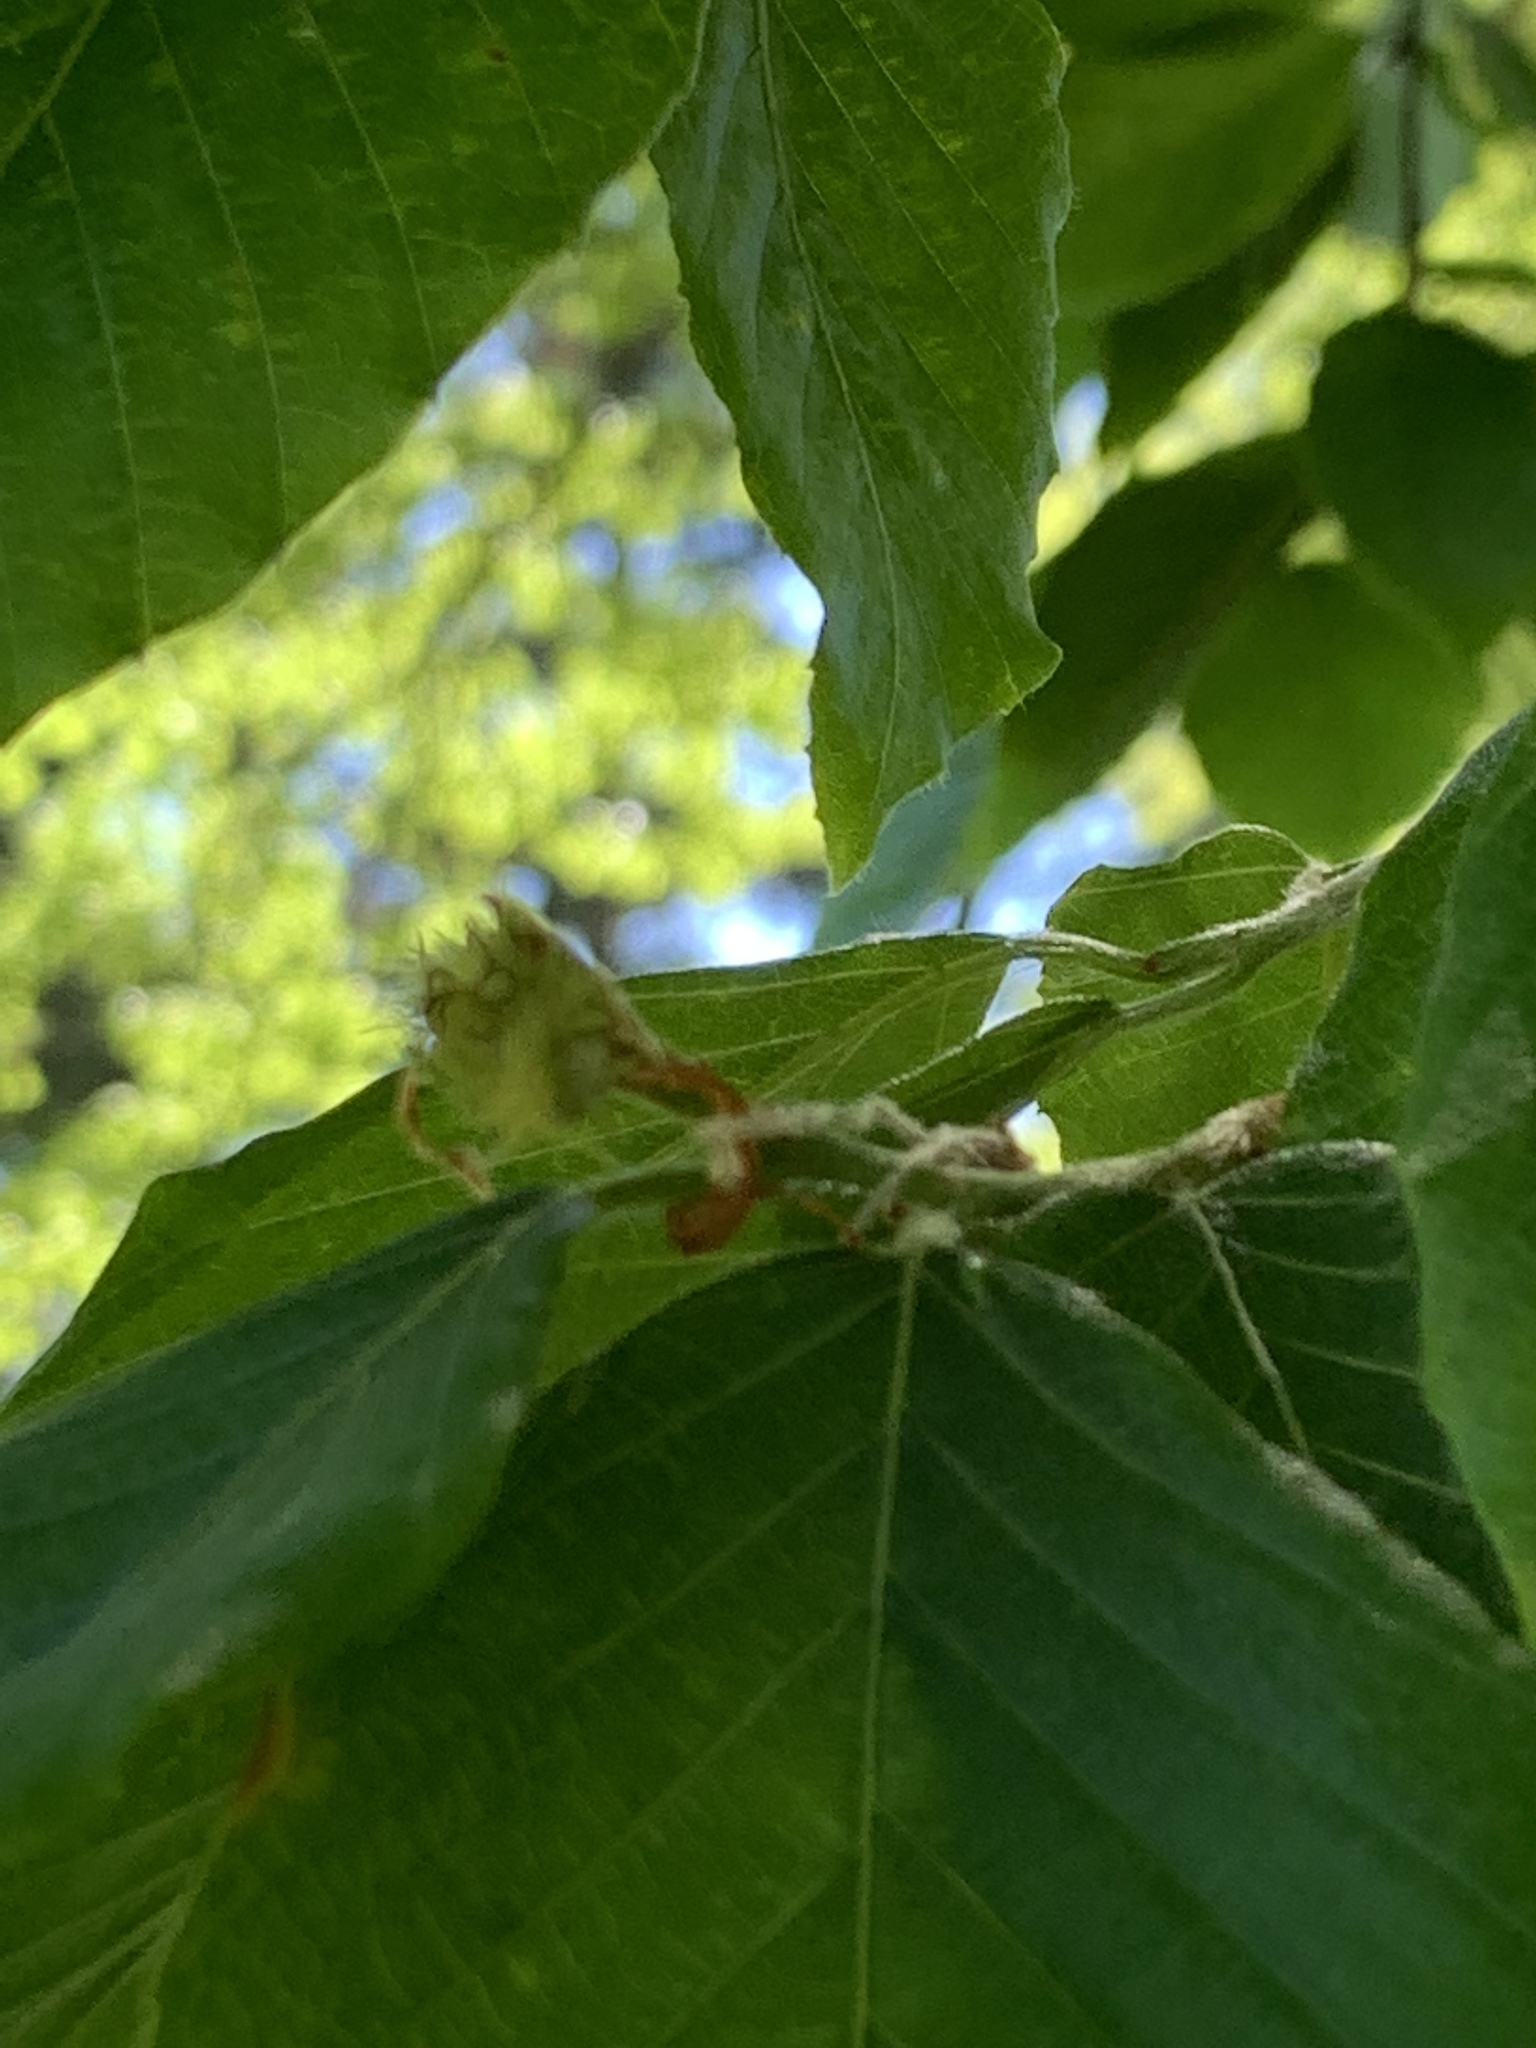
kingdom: Plantae
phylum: Tracheophyta
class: Magnoliopsida
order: Fagales
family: Fagaceae
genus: Fagus
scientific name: Fagus grandifolia
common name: American beech
